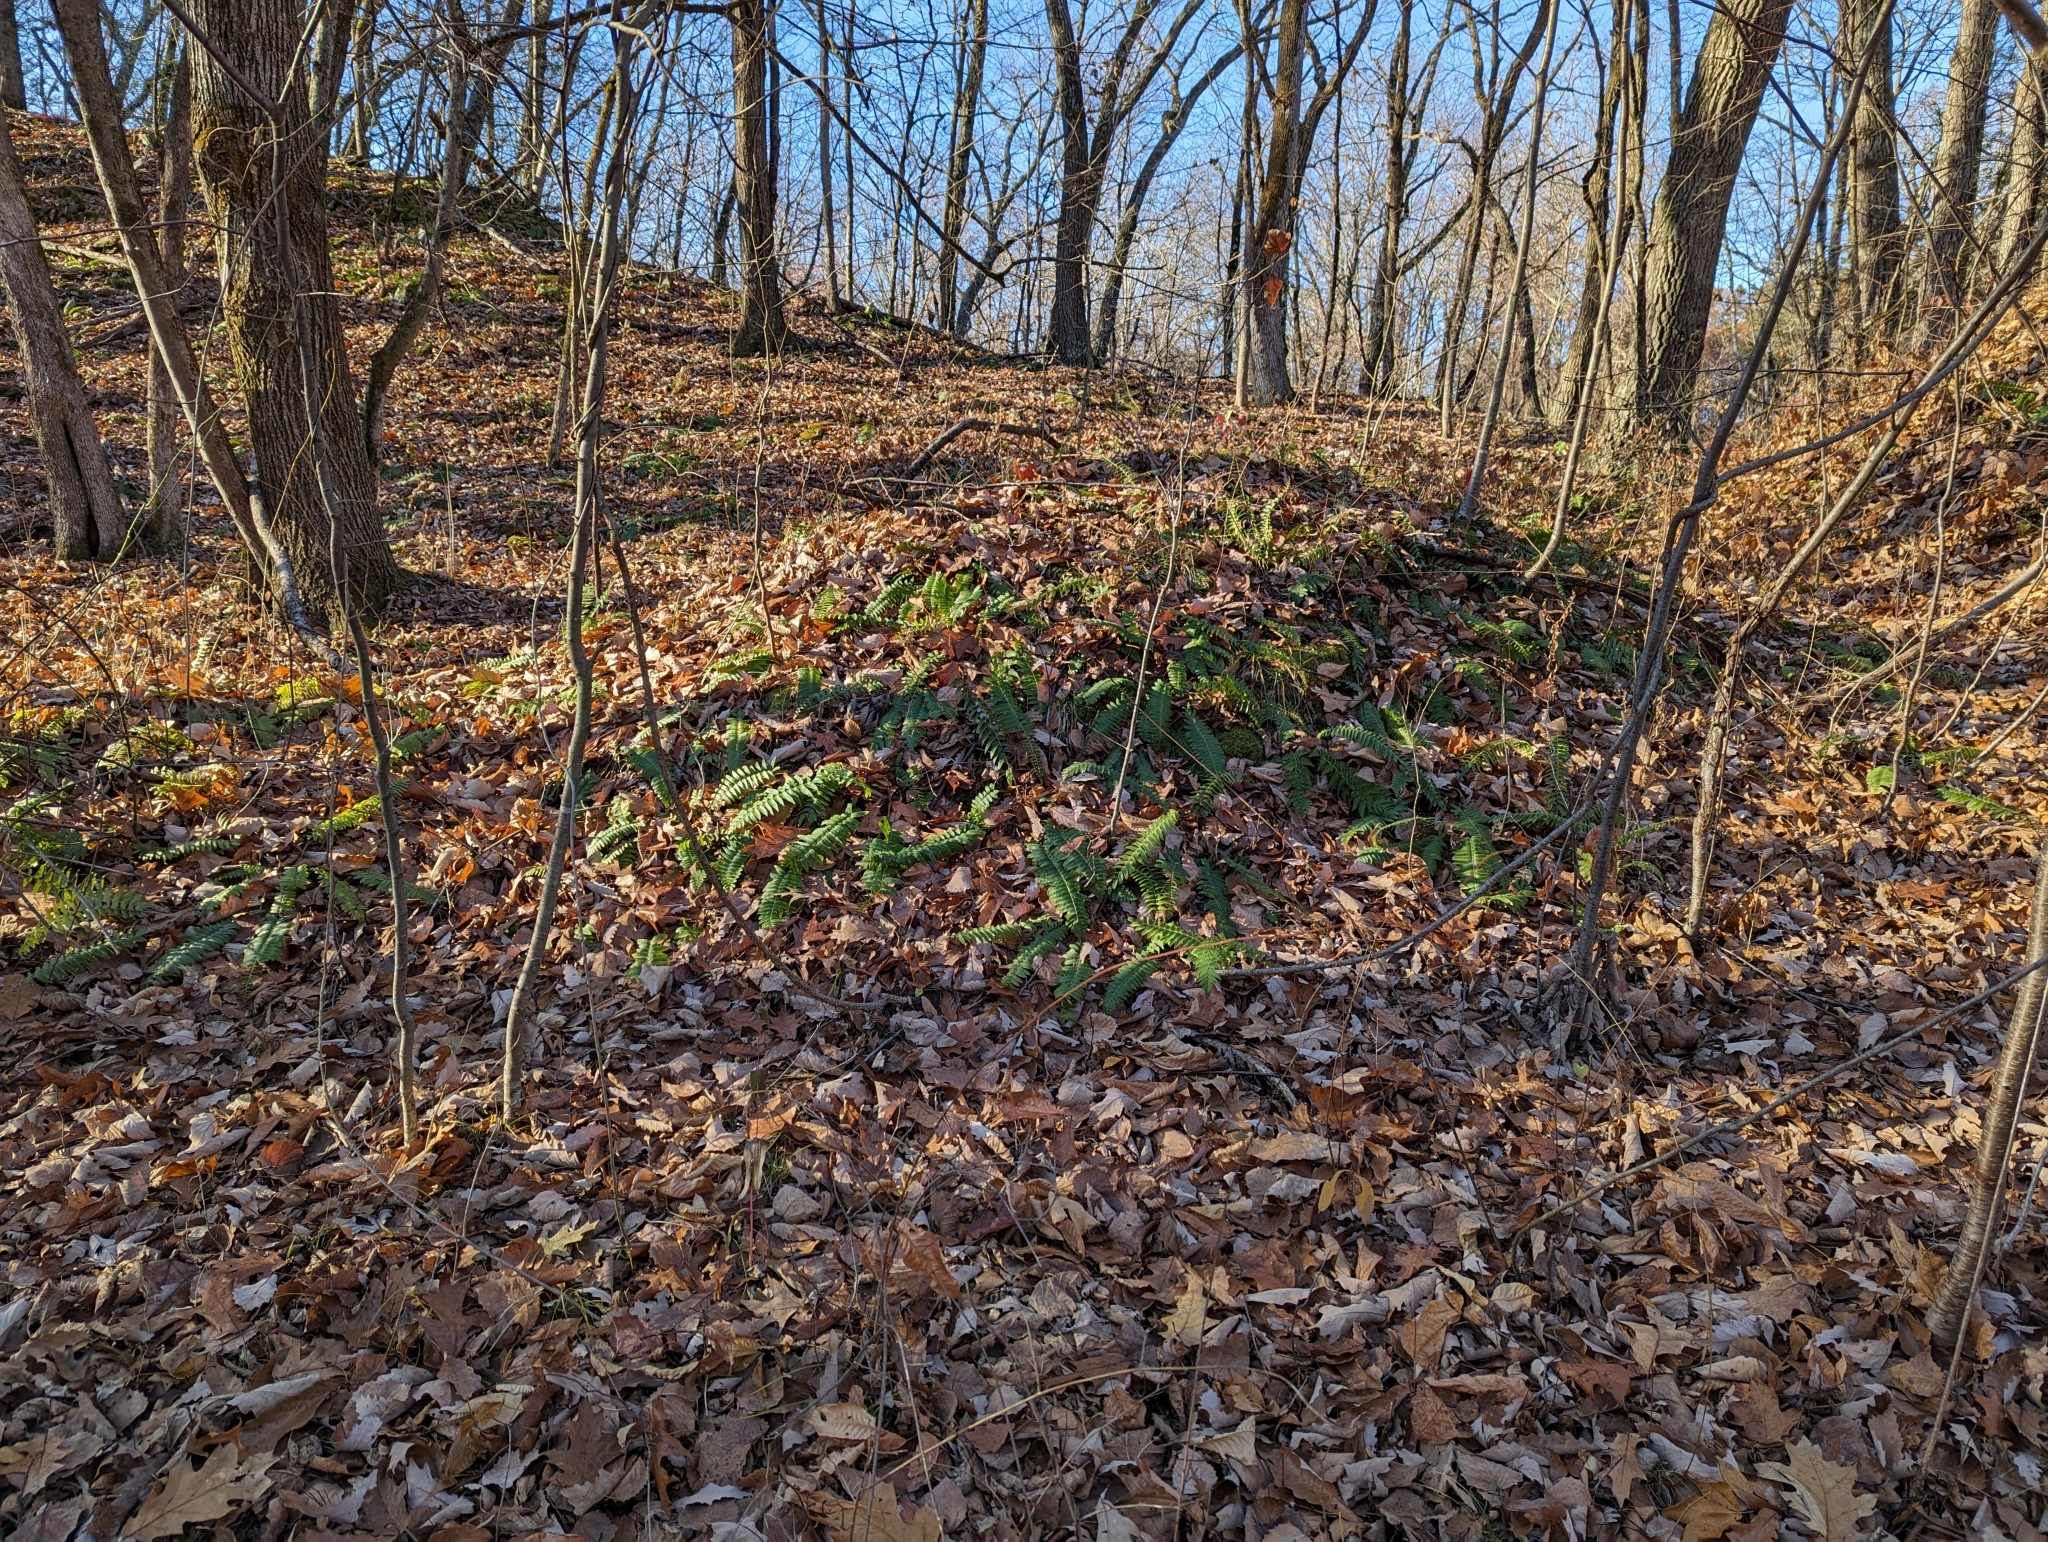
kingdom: Plantae
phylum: Tracheophyta
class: Polypodiopsida
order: Polypodiales
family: Dryopteridaceae
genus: Polystichum
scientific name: Polystichum acrostichoides
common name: Christmas fern
